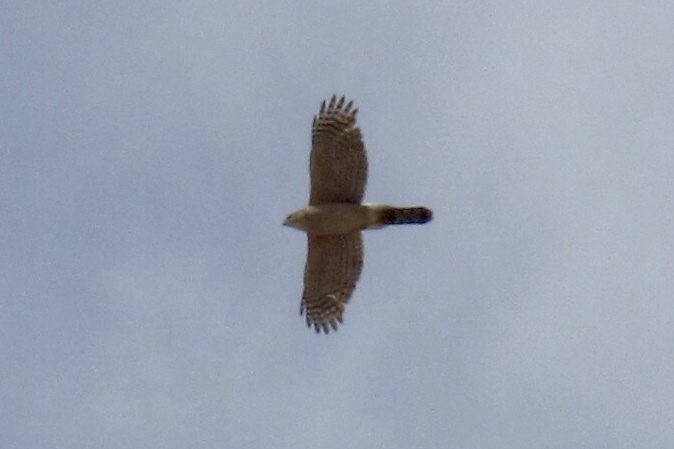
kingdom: Animalia
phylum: Chordata
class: Aves
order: Accipitriformes
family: Accipitridae
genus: Accipiter
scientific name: Accipiter cooperii
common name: Cooper's hawk
